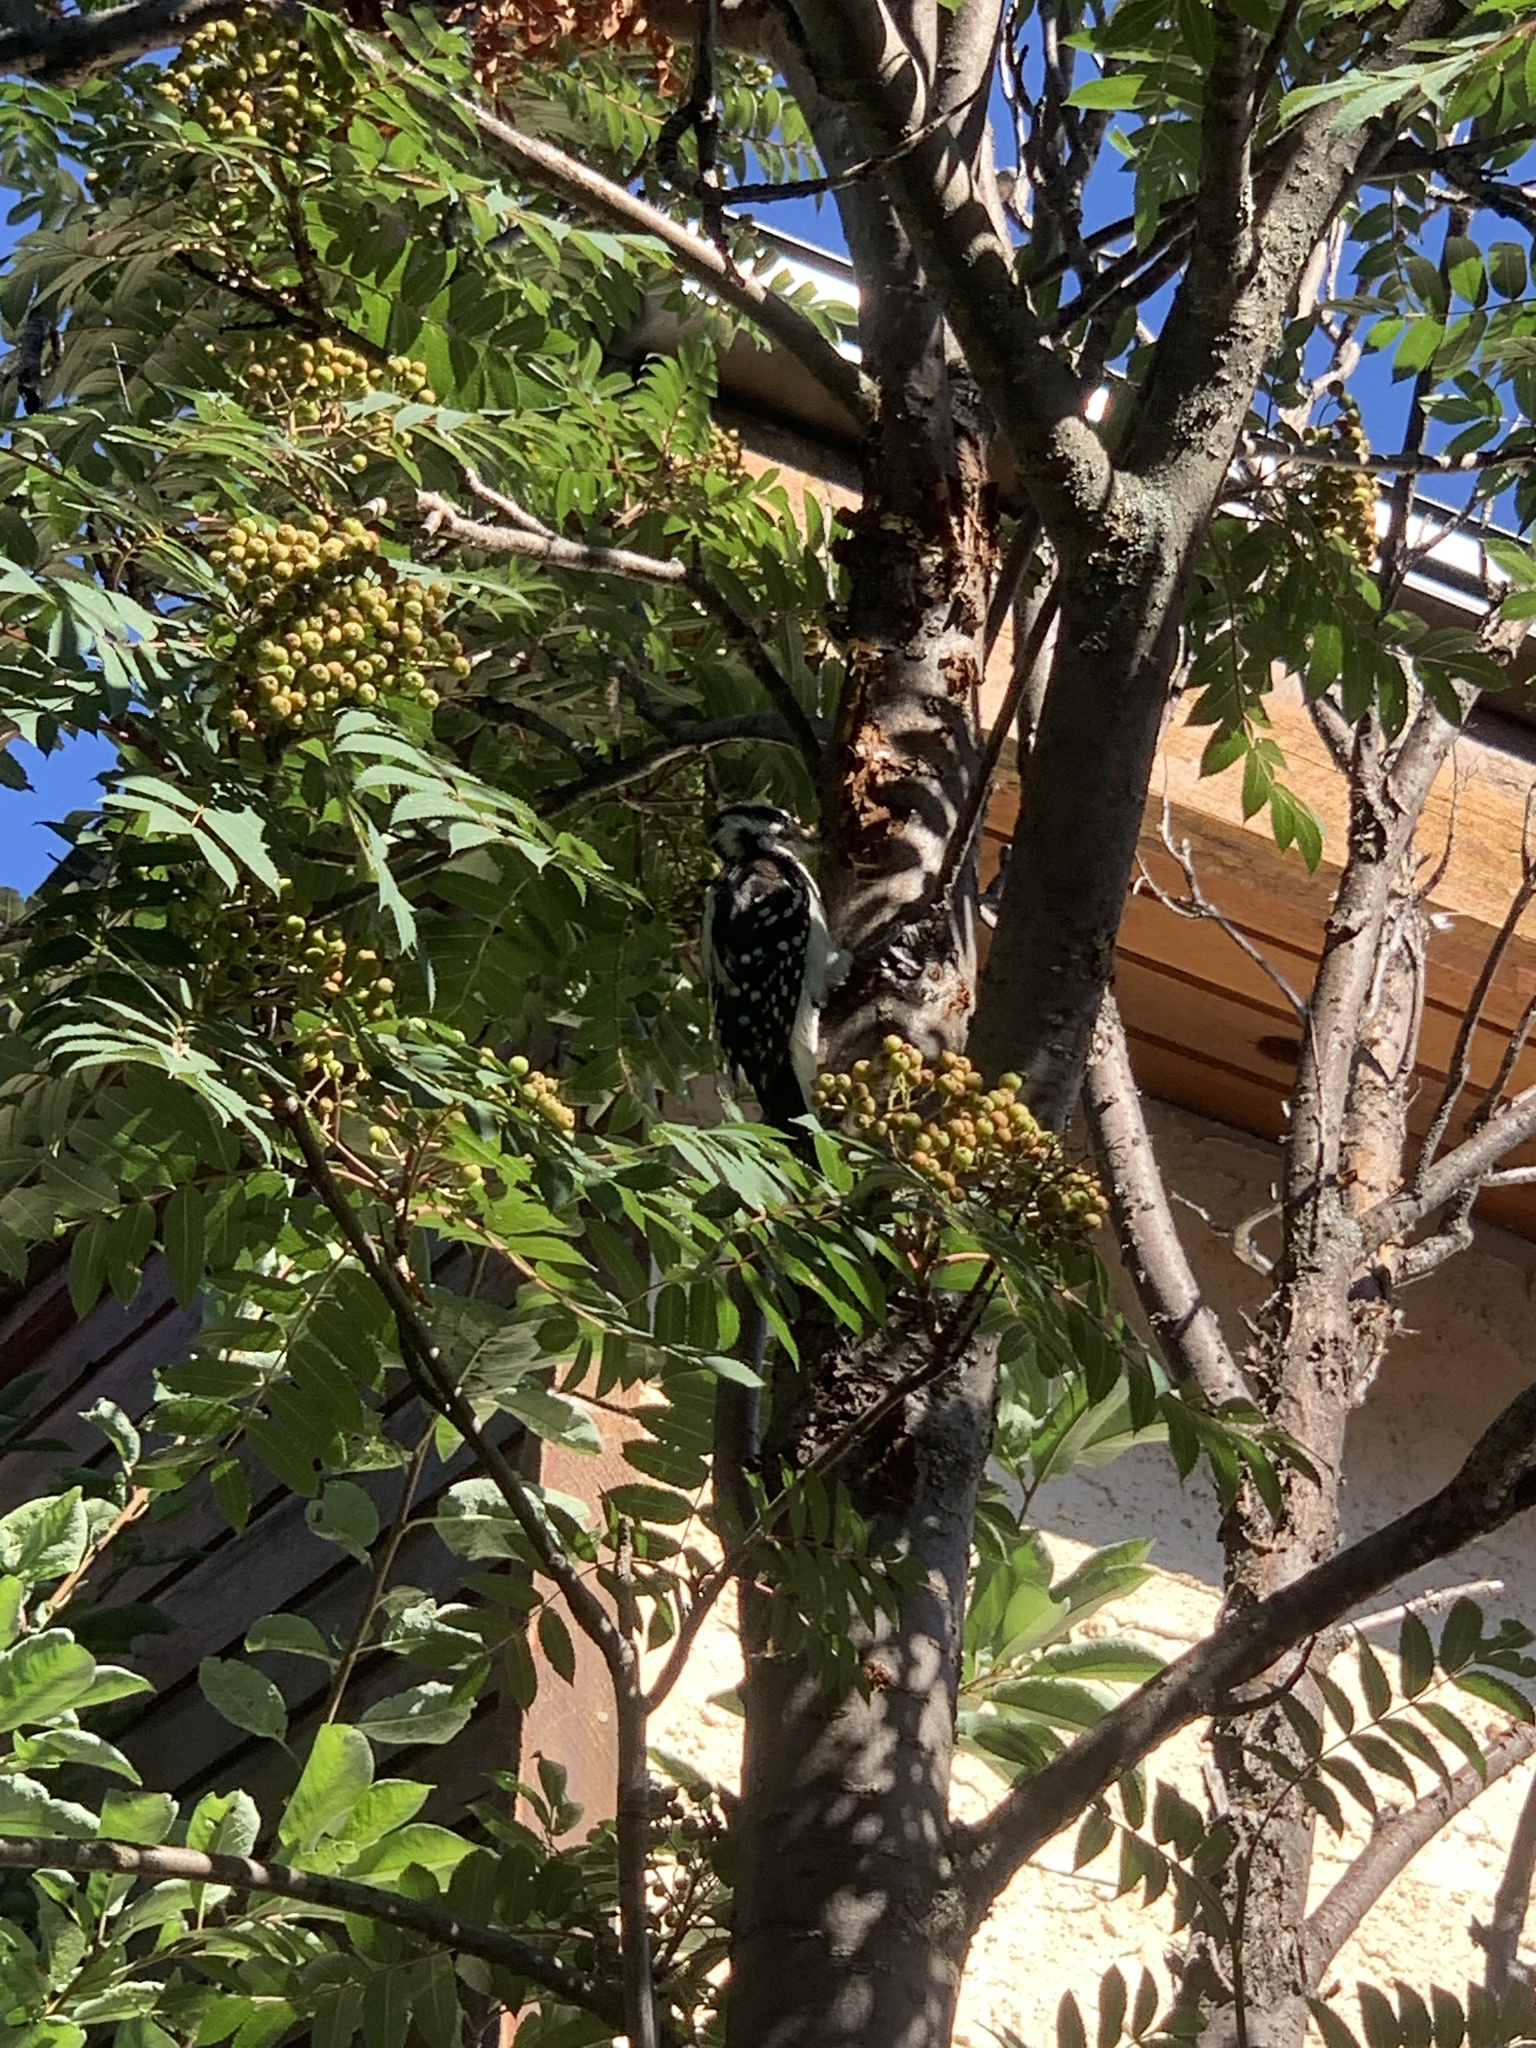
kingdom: Animalia
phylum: Chordata
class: Aves
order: Piciformes
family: Picidae
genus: Dryobates
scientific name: Dryobates pubescens
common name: Downy woodpecker
